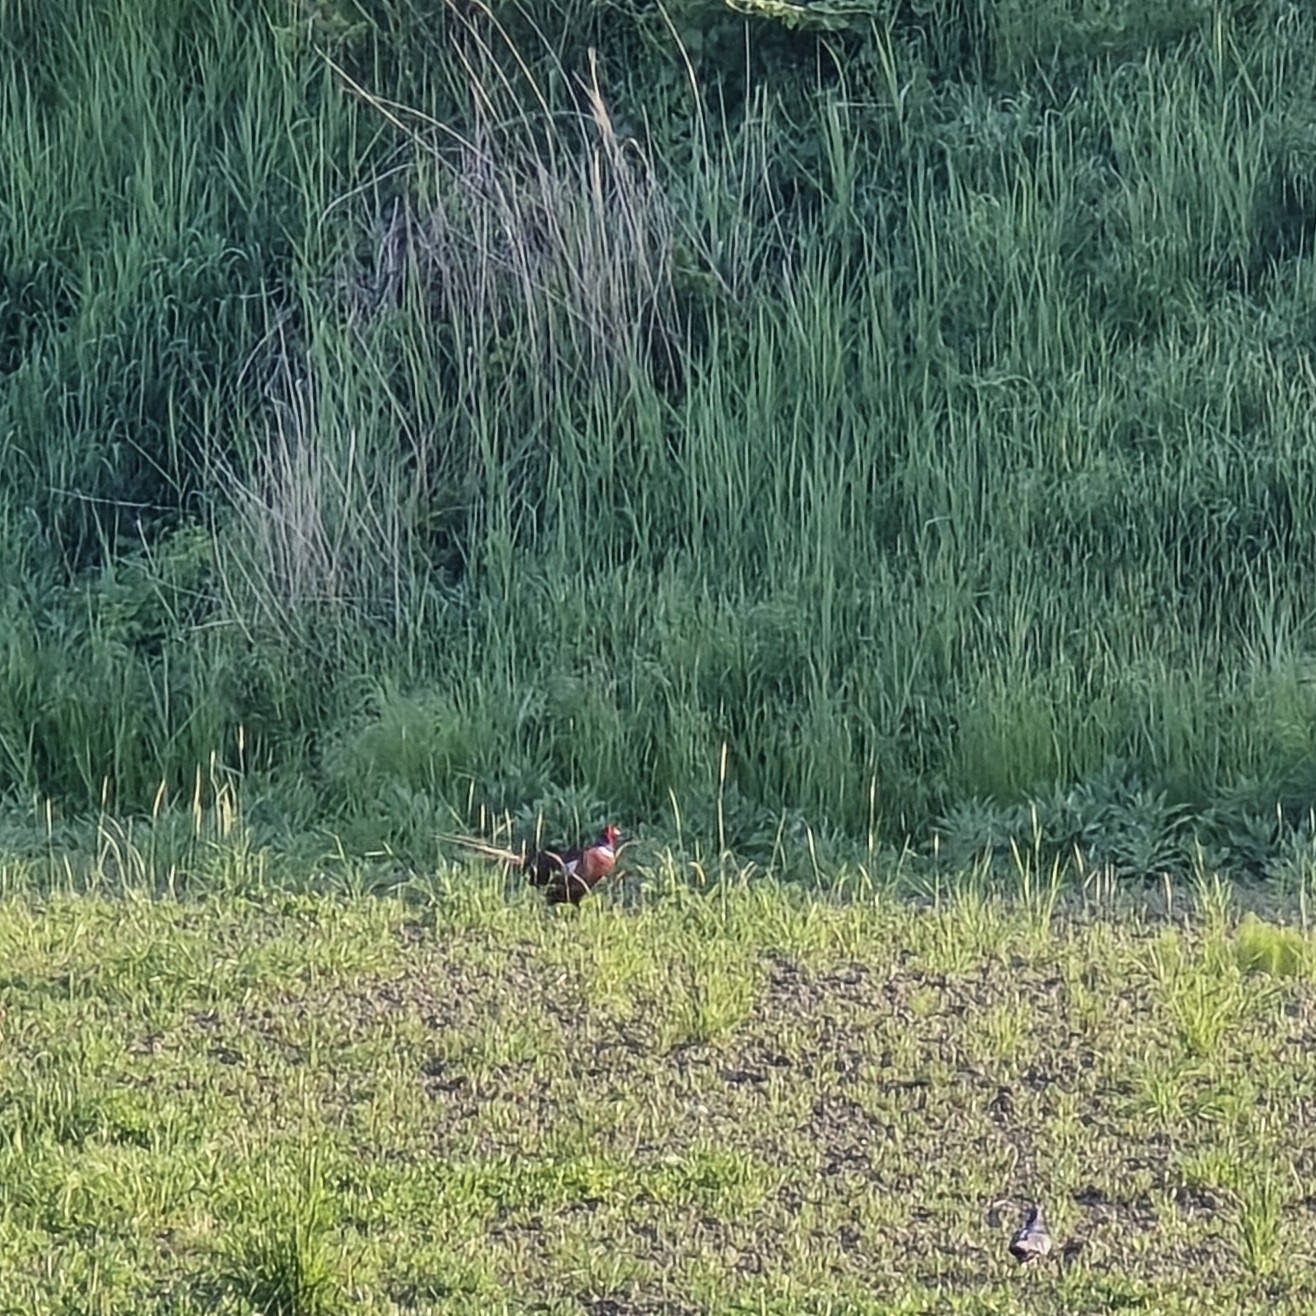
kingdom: Animalia
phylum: Chordata
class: Aves
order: Galliformes
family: Phasianidae
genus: Phasianus
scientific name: Phasianus colchicus
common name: Common pheasant
